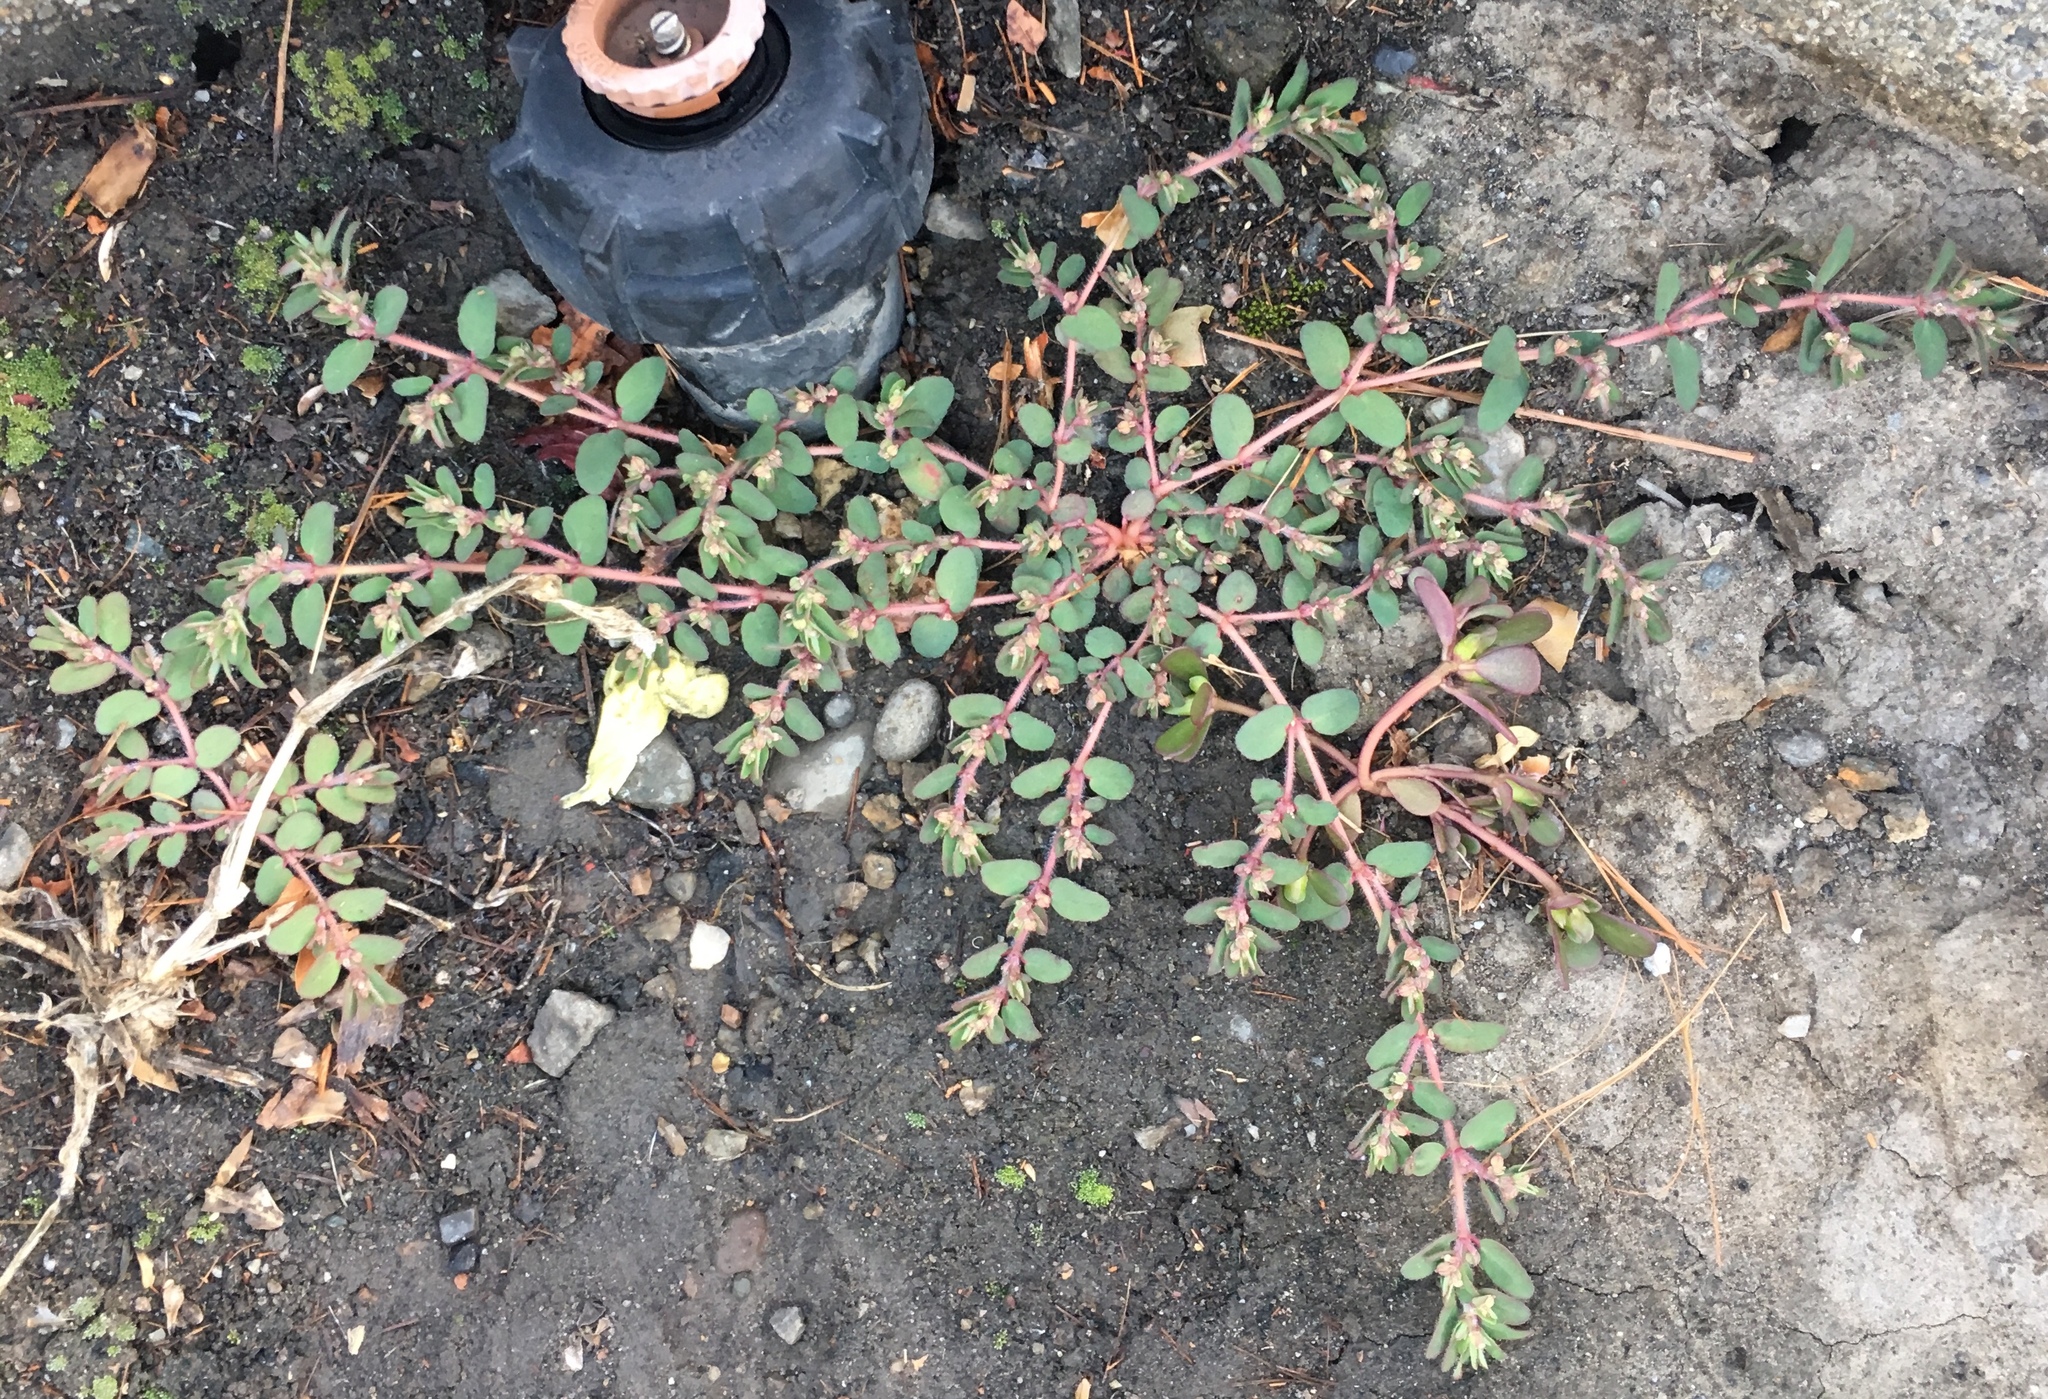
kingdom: Plantae
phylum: Tracheophyta
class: Magnoliopsida
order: Malpighiales
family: Euphorbiaceae
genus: Euphorbia
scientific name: Euphorbia maculata
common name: Spotted spurge
